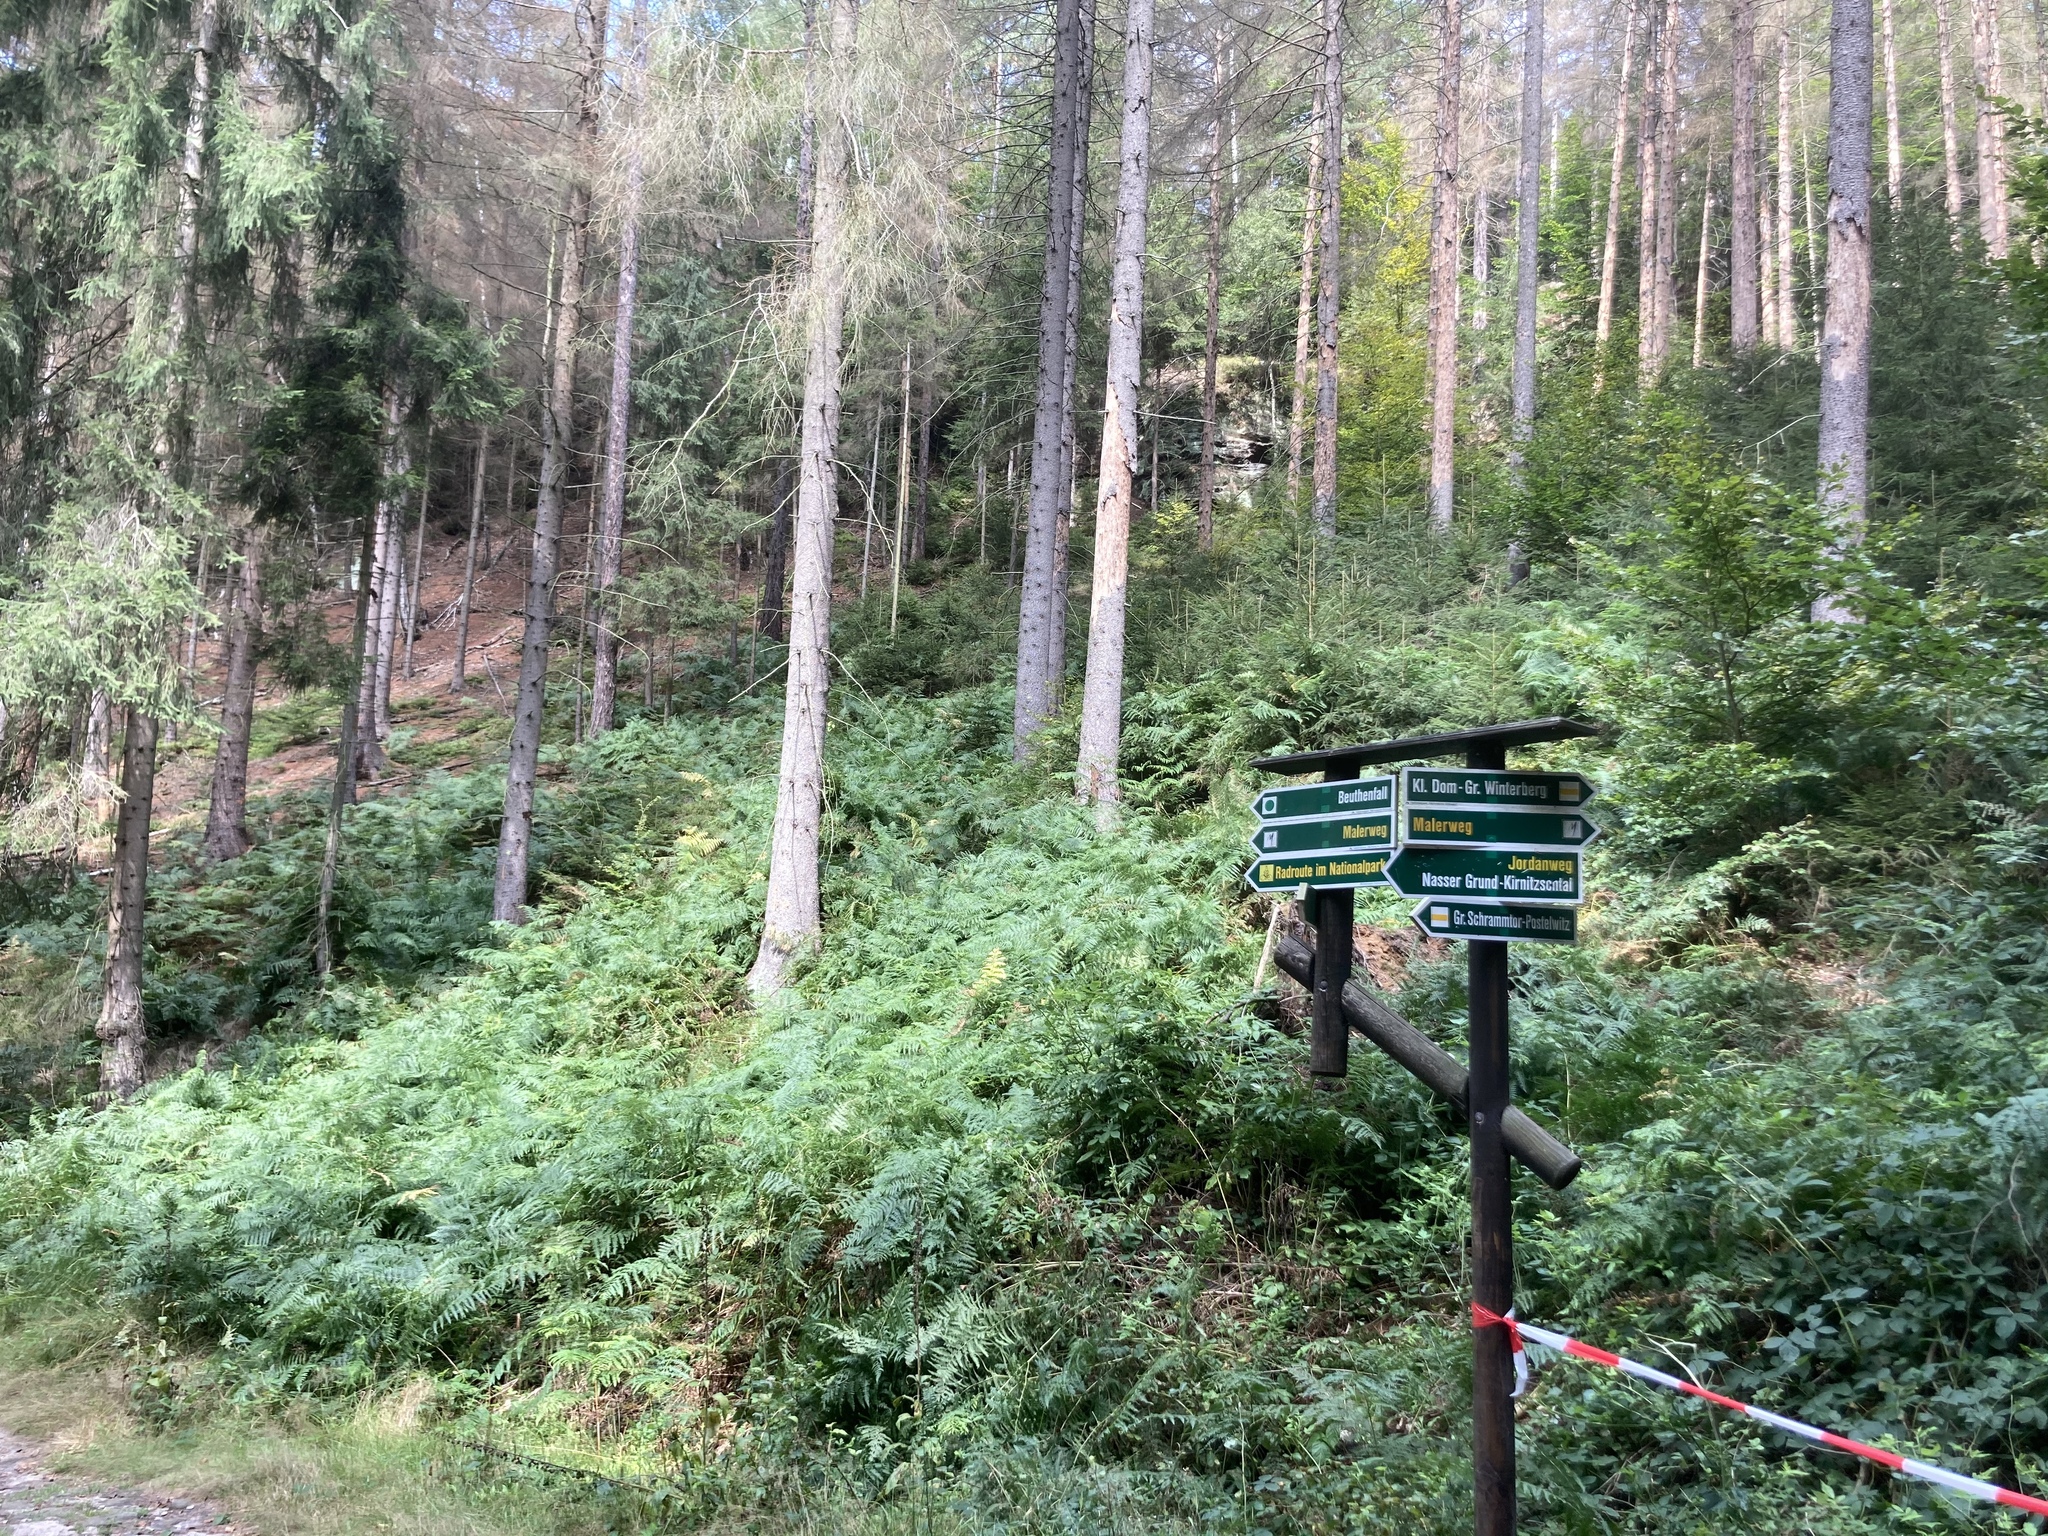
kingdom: Plantae
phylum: Tracheophyta
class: Polypodiopsida
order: Polypodiales
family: Dennstaedtiaceae
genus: Pteridium
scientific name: Pteridium aquilinum
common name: Bracken
